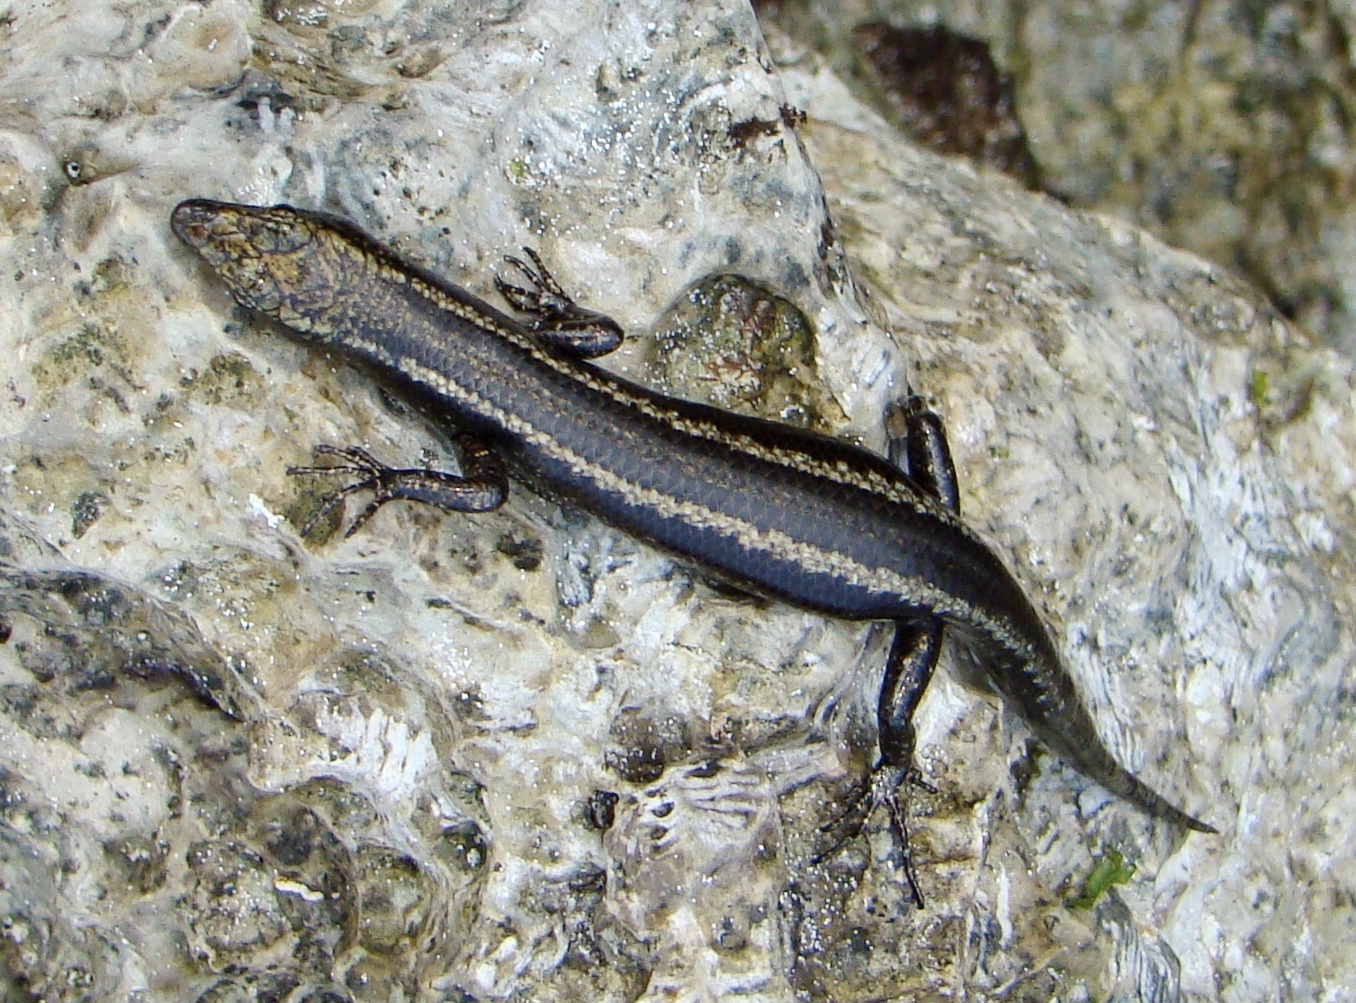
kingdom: Animalia
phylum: Chordata
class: Squamata
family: Scincidae
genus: Cryptoblepharus
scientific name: Cryptoblepharus africanus
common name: African coral rag skink
